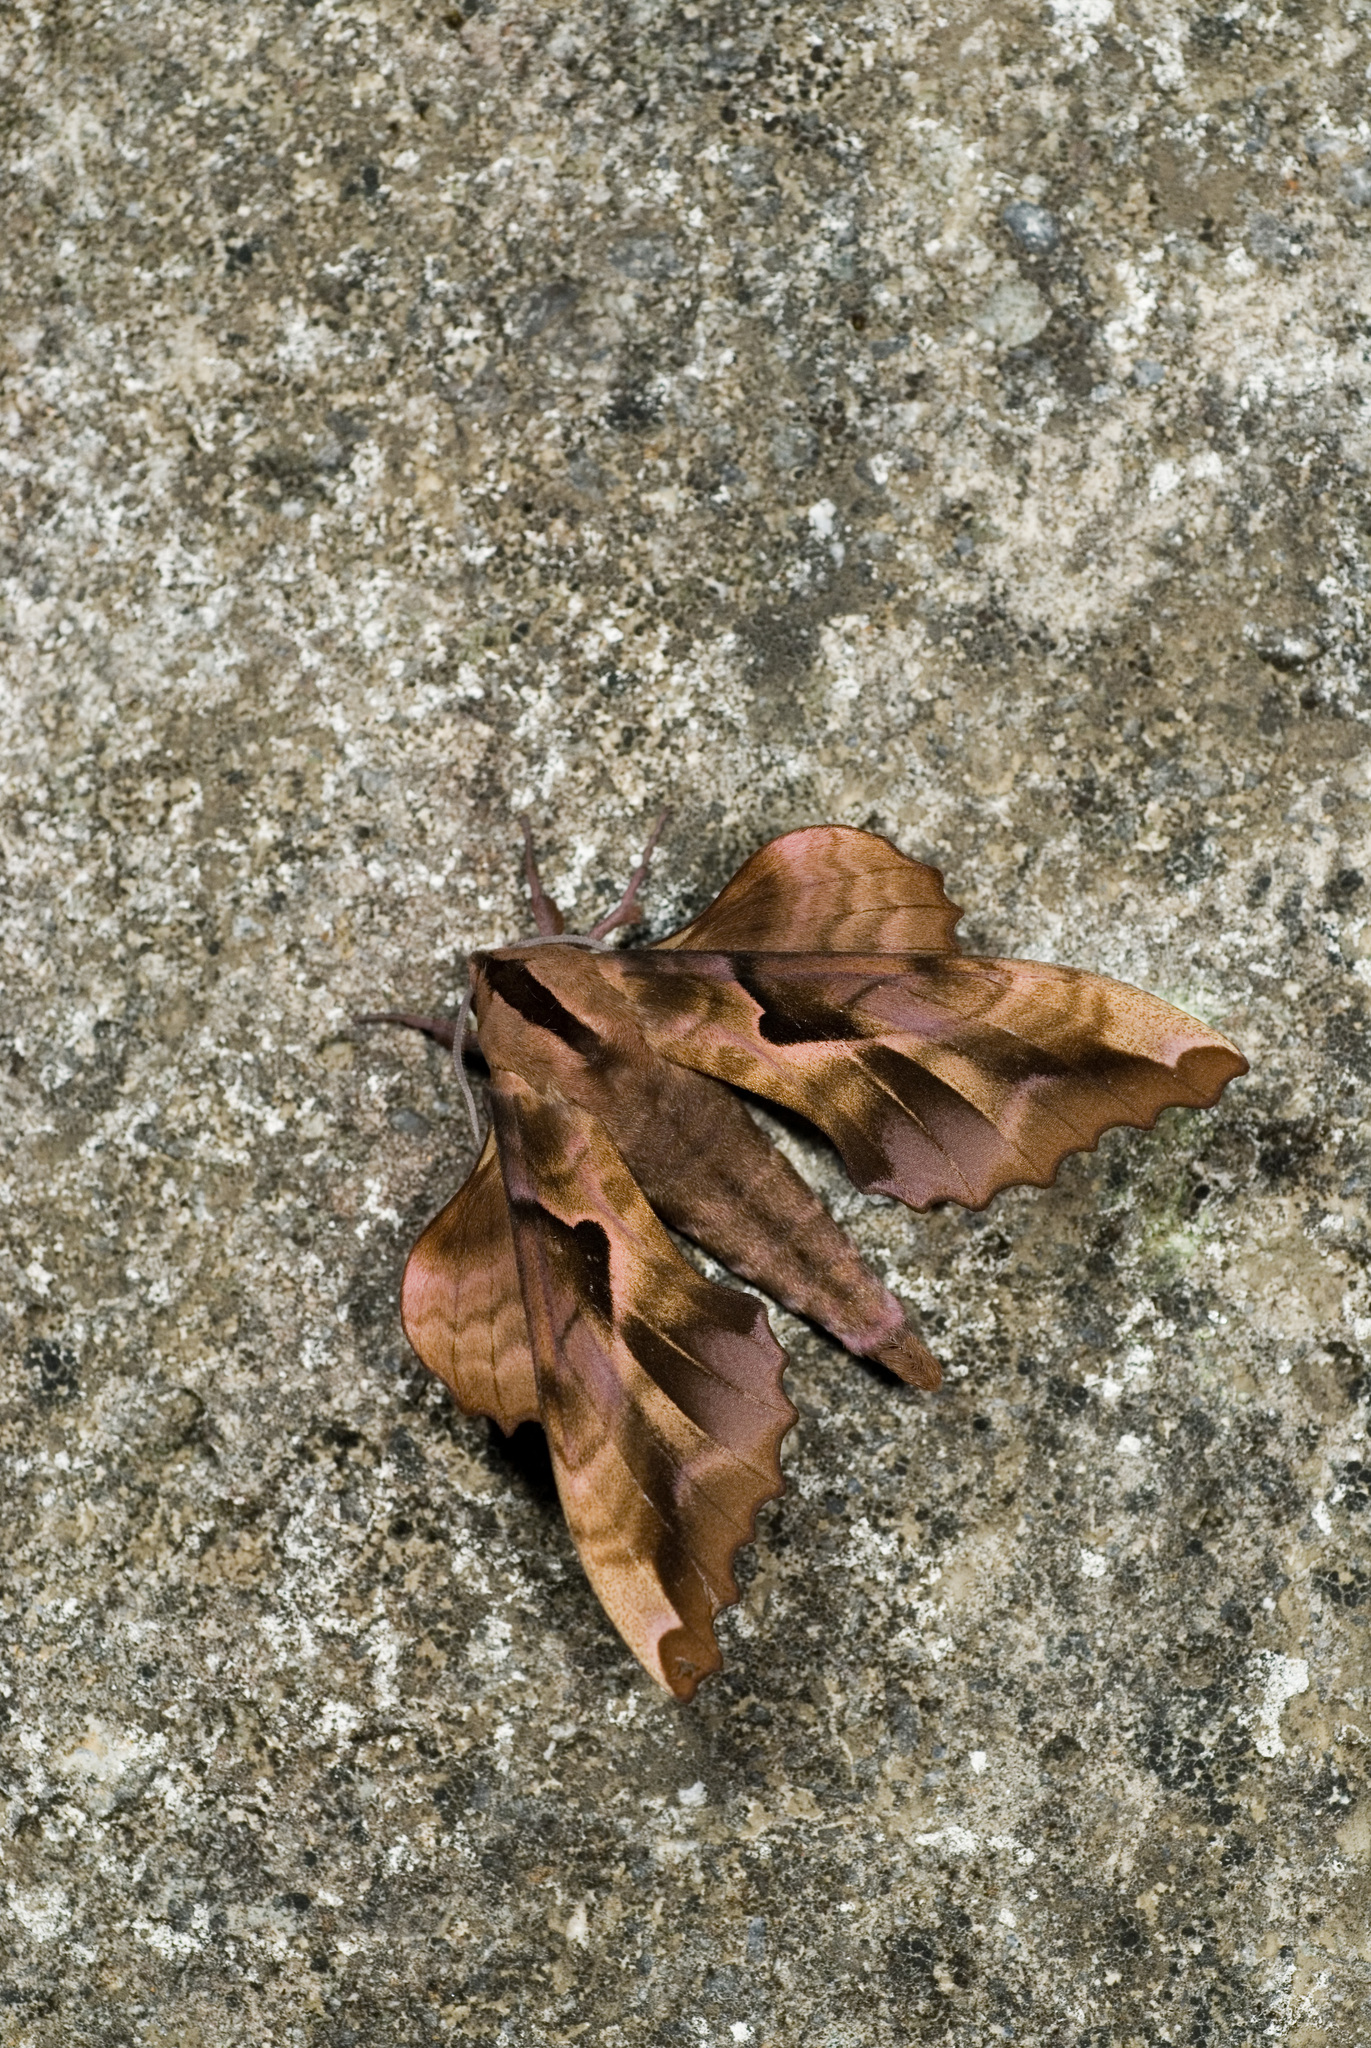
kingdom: Animalia
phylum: Arthropoda
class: Insecta
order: Lepidoptera
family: Sphingidae
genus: Phyllosphingia
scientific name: Phyllosphingia dissimilis
